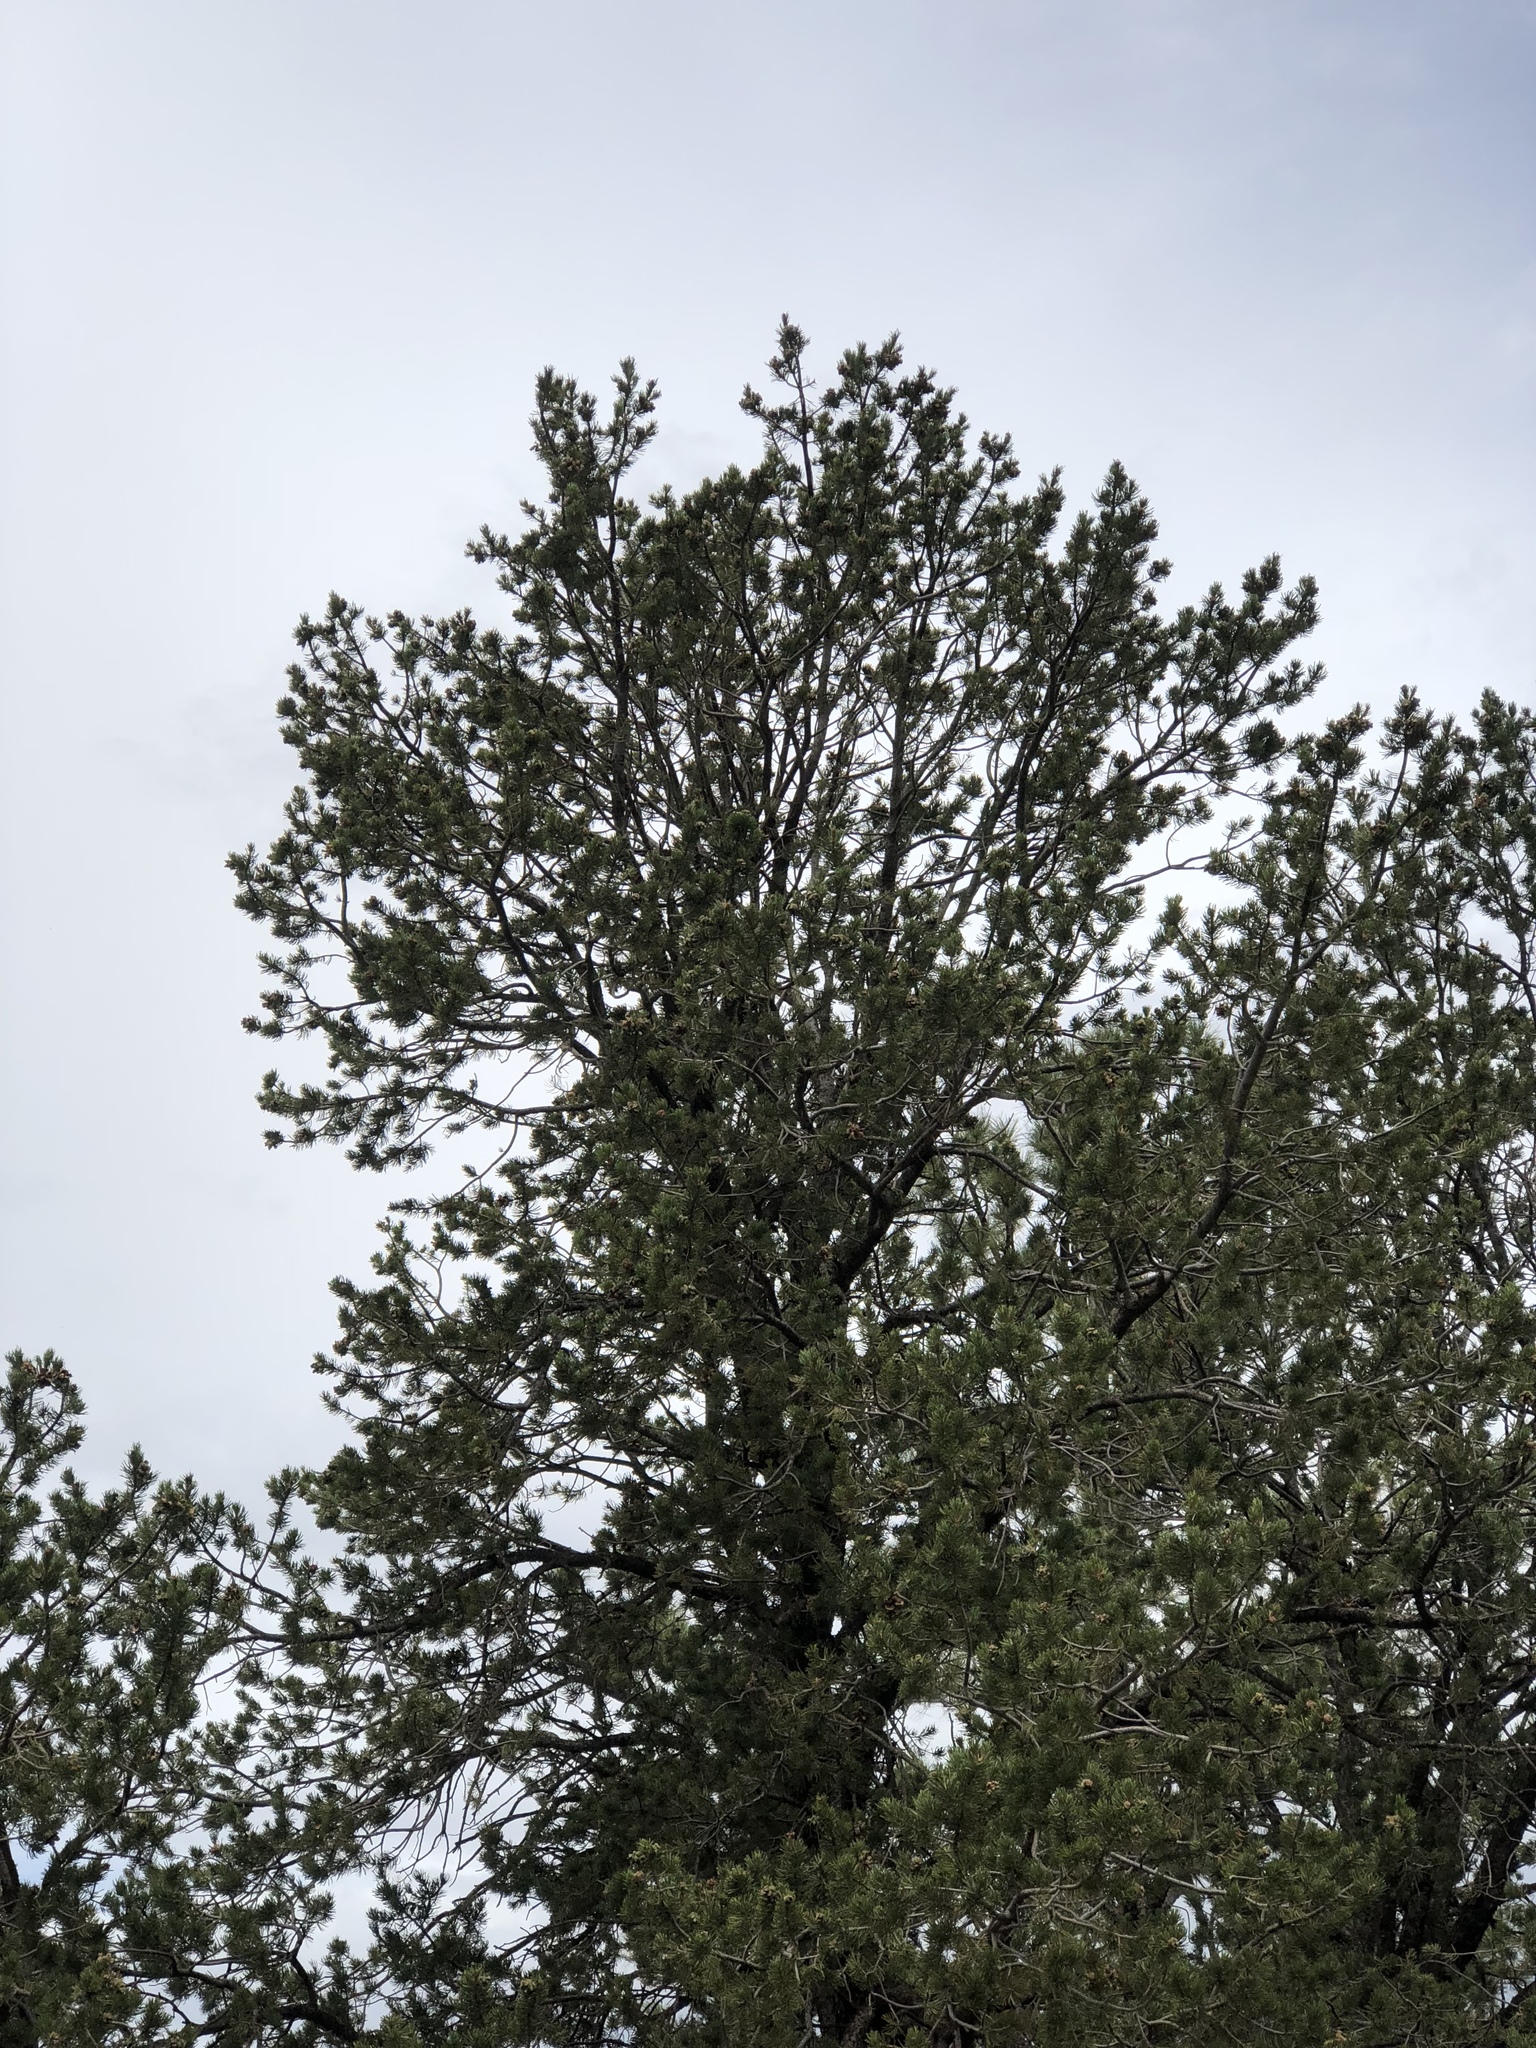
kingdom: Plantae
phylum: Tracheophyta
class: Pinopsida
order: Pinales
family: Pinaceae
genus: Pinus
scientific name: Pinus edulis
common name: Colorado pinyon
